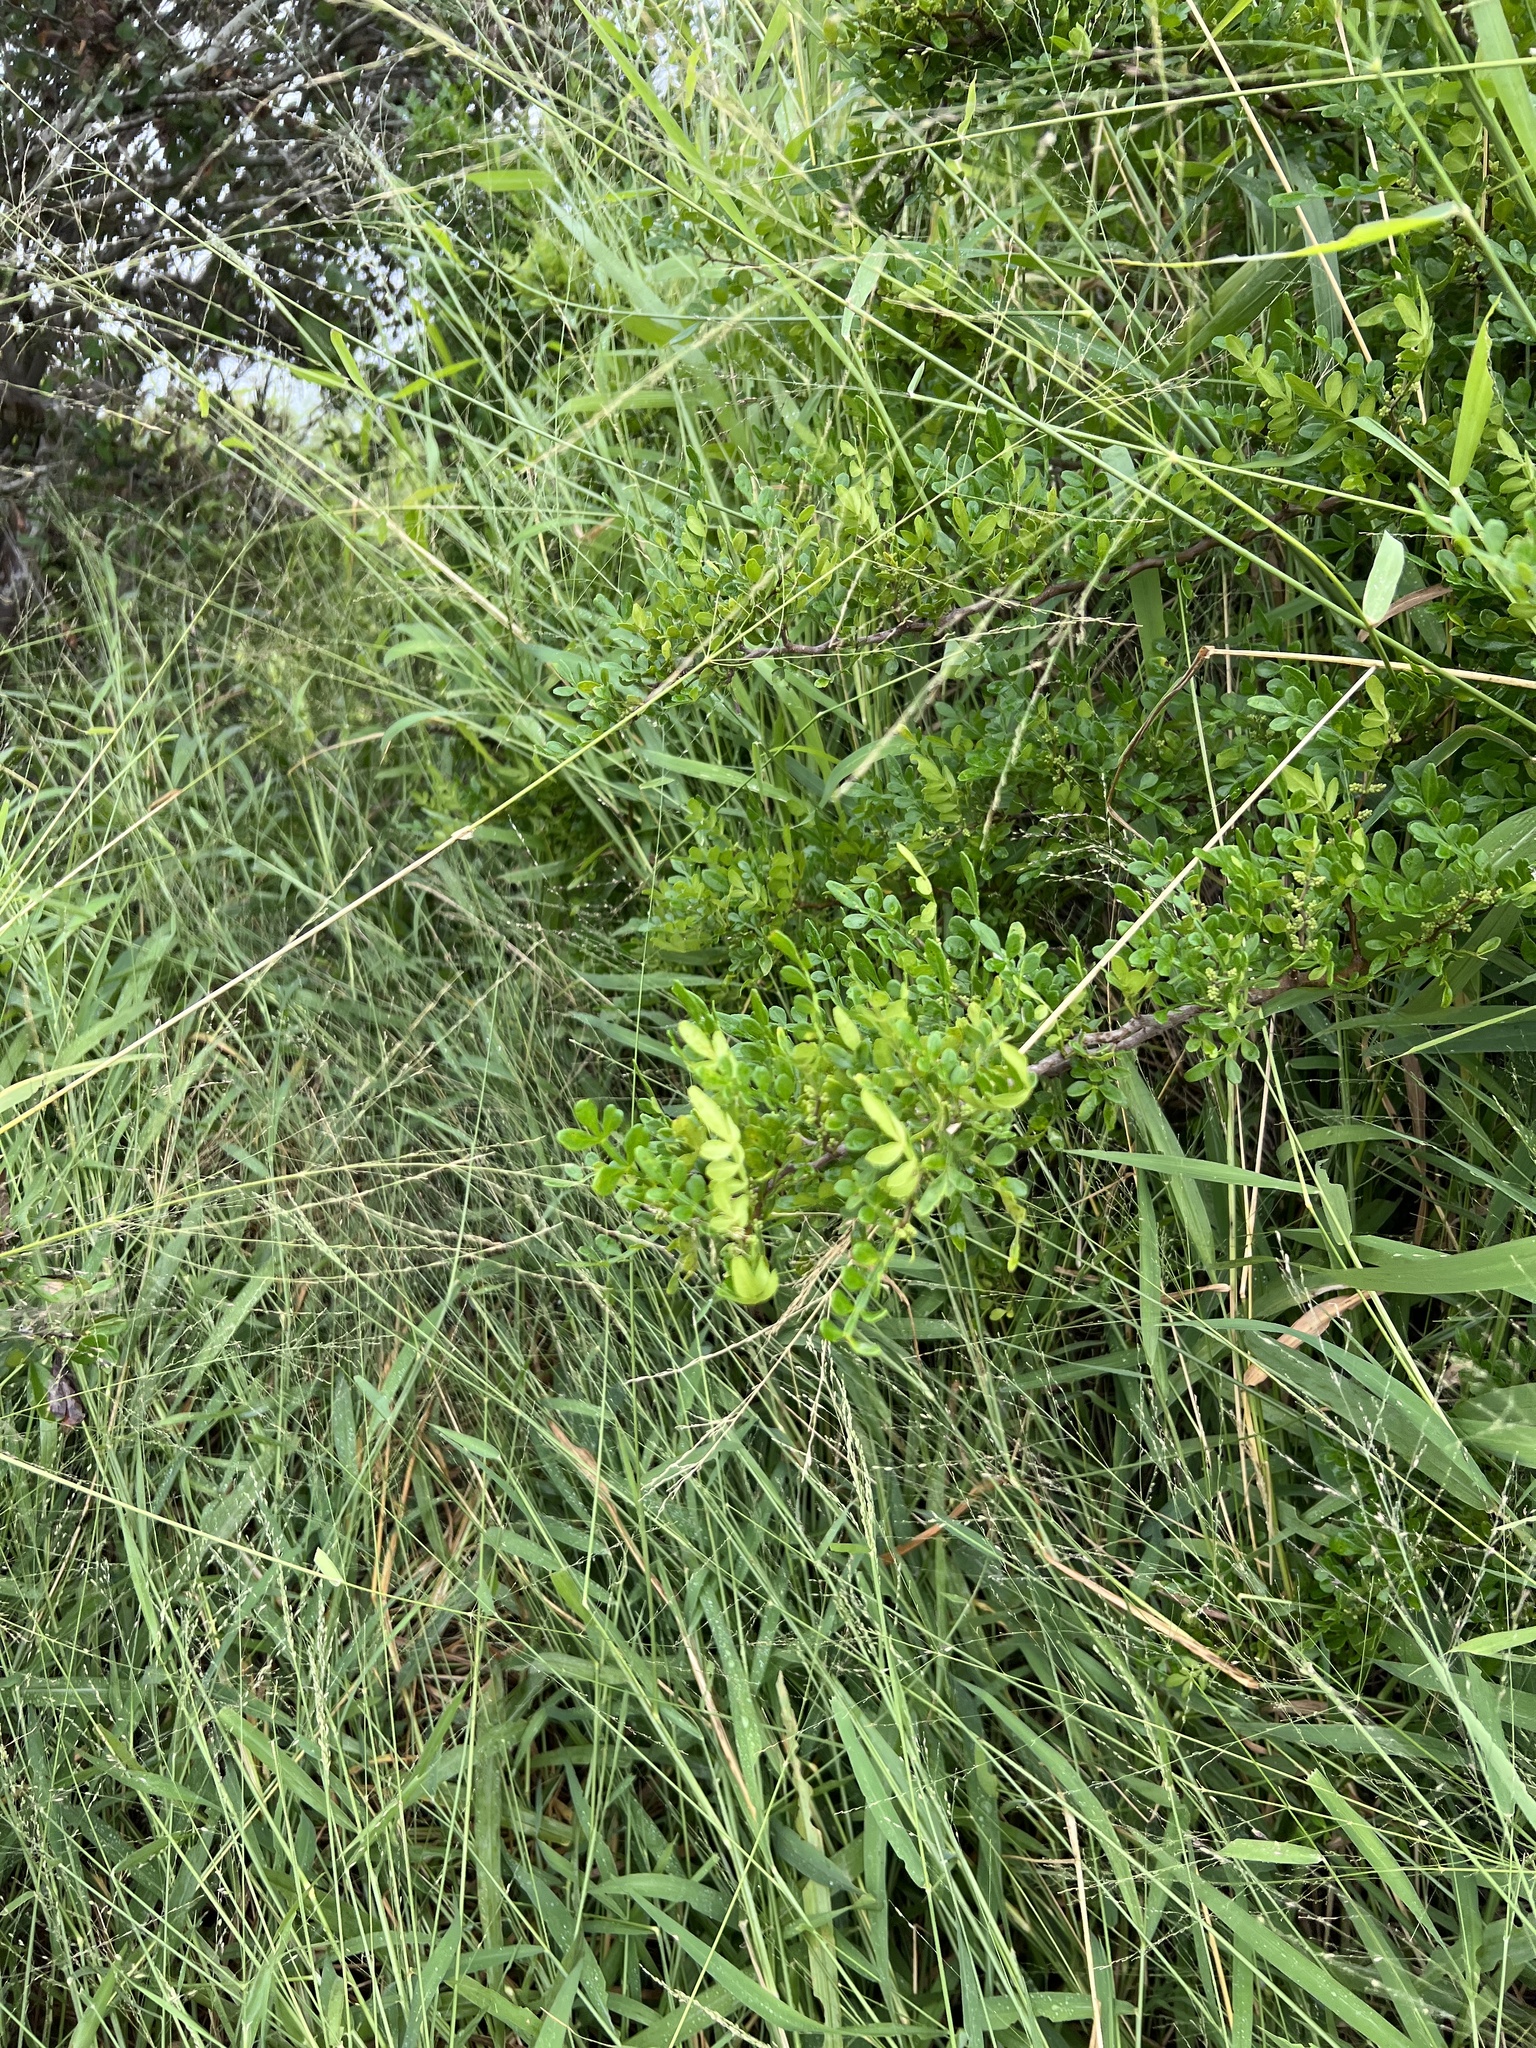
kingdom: Plantae
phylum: Tracheophyta
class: Magnoliopsida
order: Sapindales
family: Rutaceae
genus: Zanthoxylum
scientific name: Zanthoxylum fagara
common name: Lime prickly-ash
